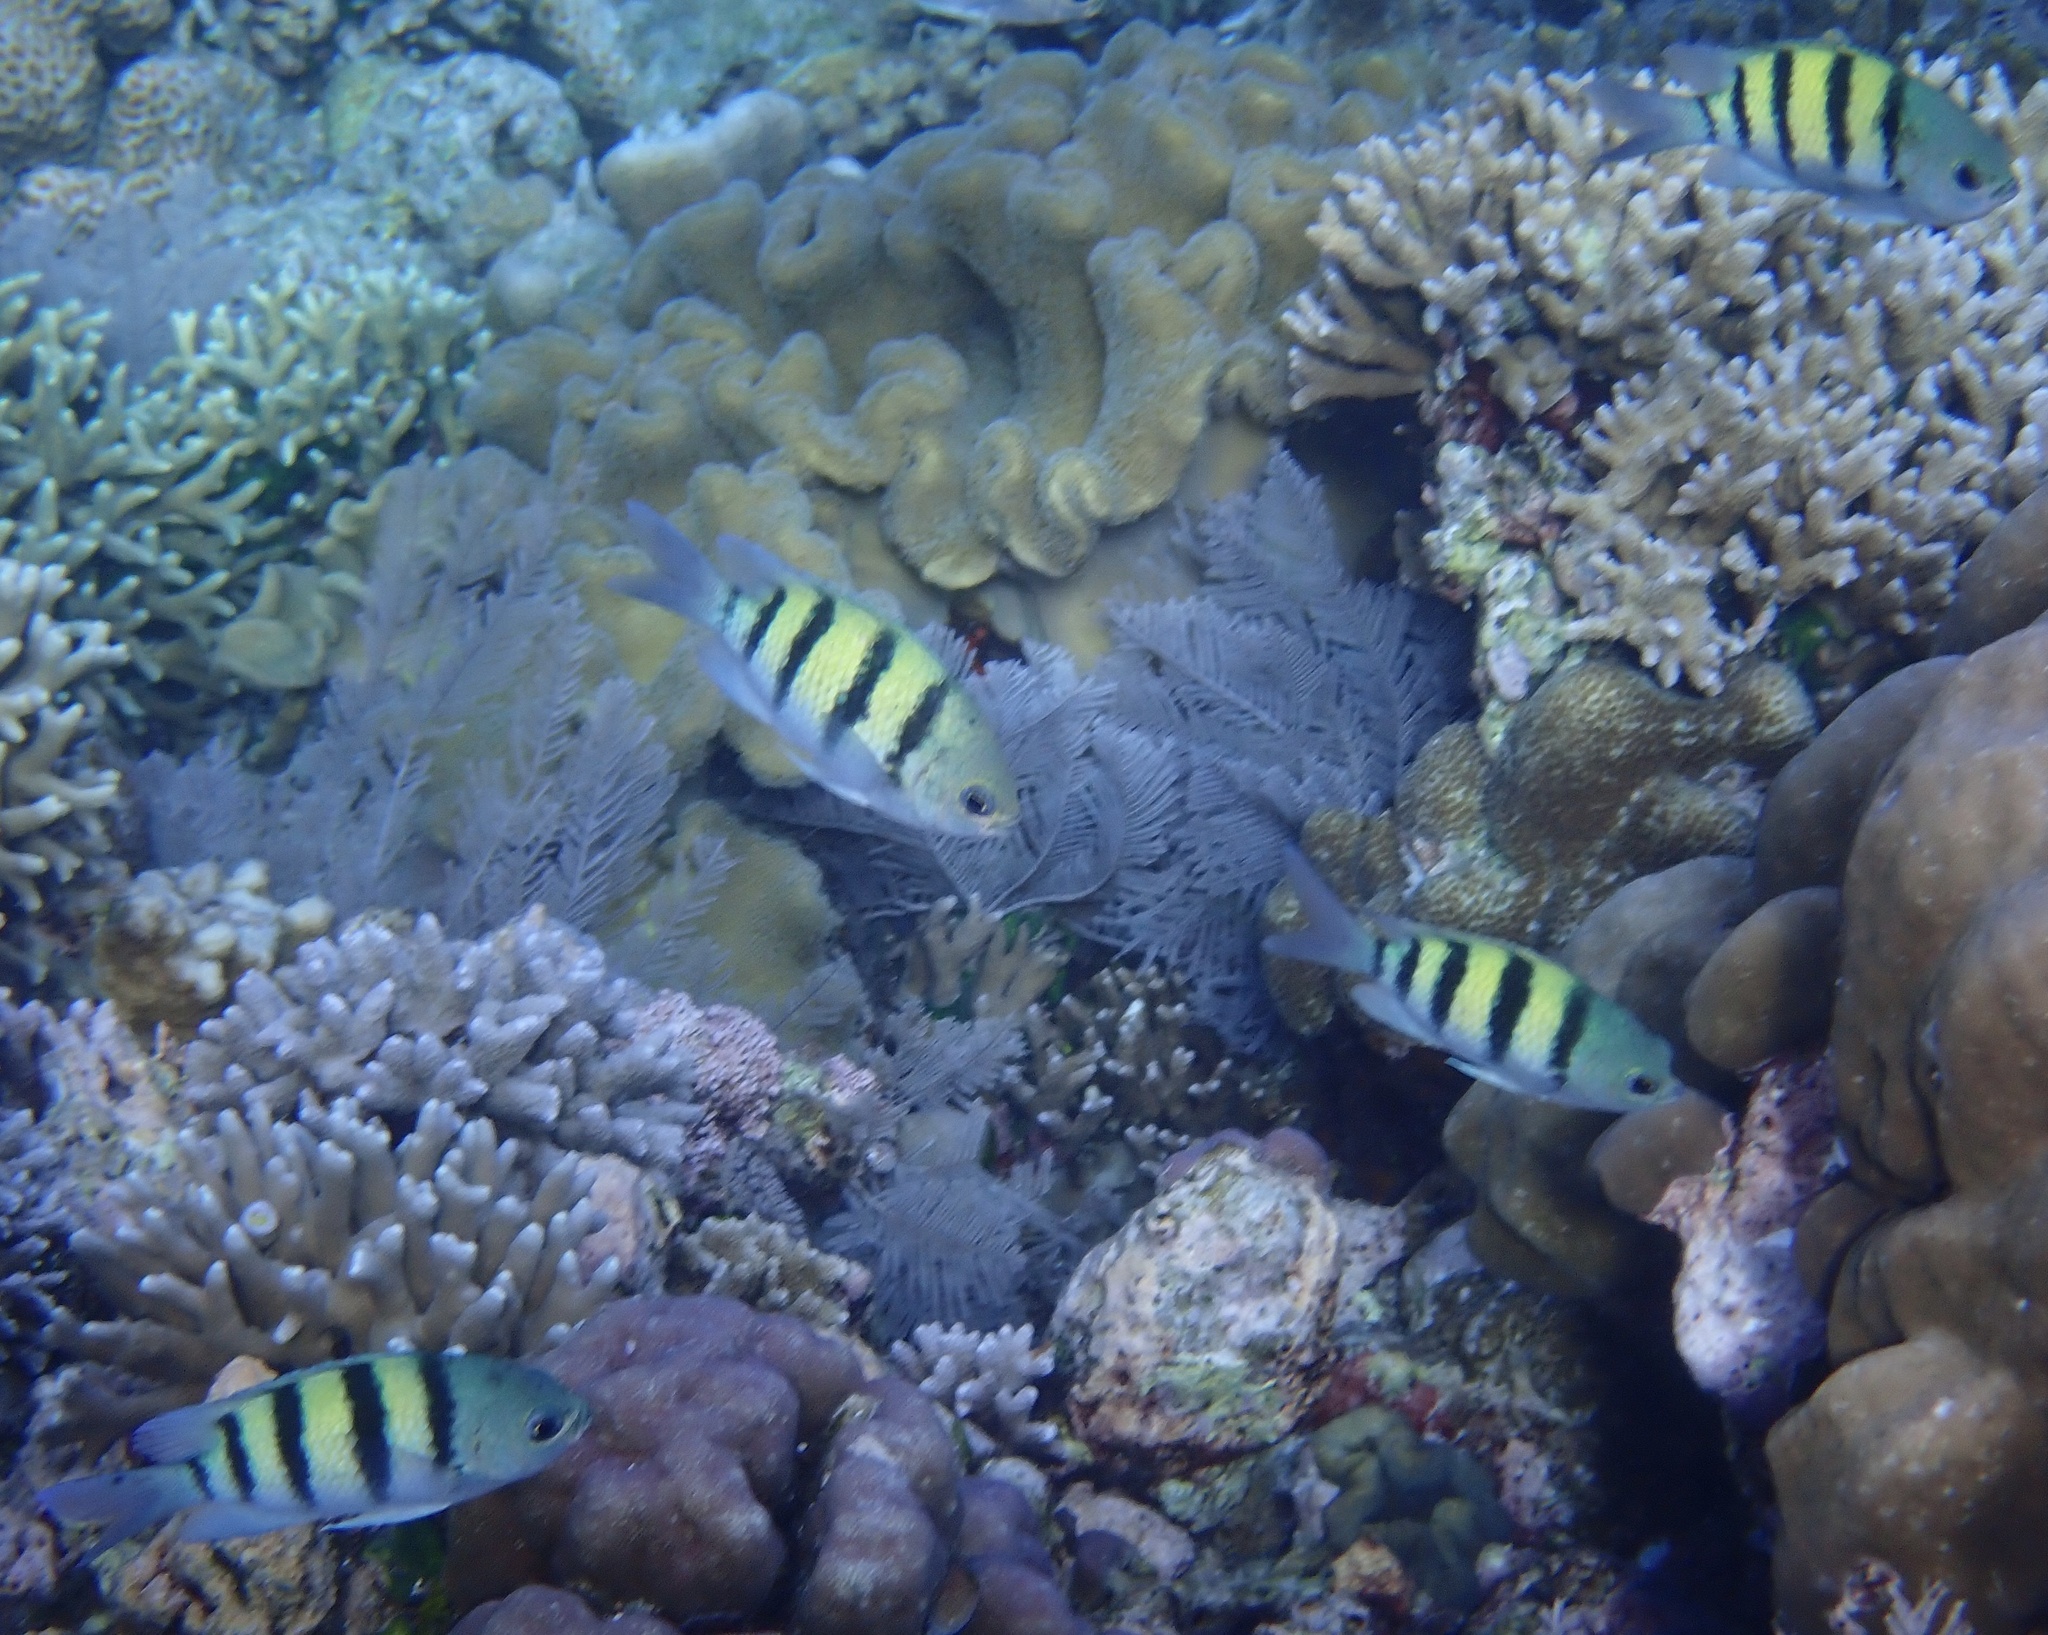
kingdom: Animalia
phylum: Chordata
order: Perciformes
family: Pomacentridae
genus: Abudefduf
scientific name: Abudefduf vaigiensis
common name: Indo-pacific sergeant
